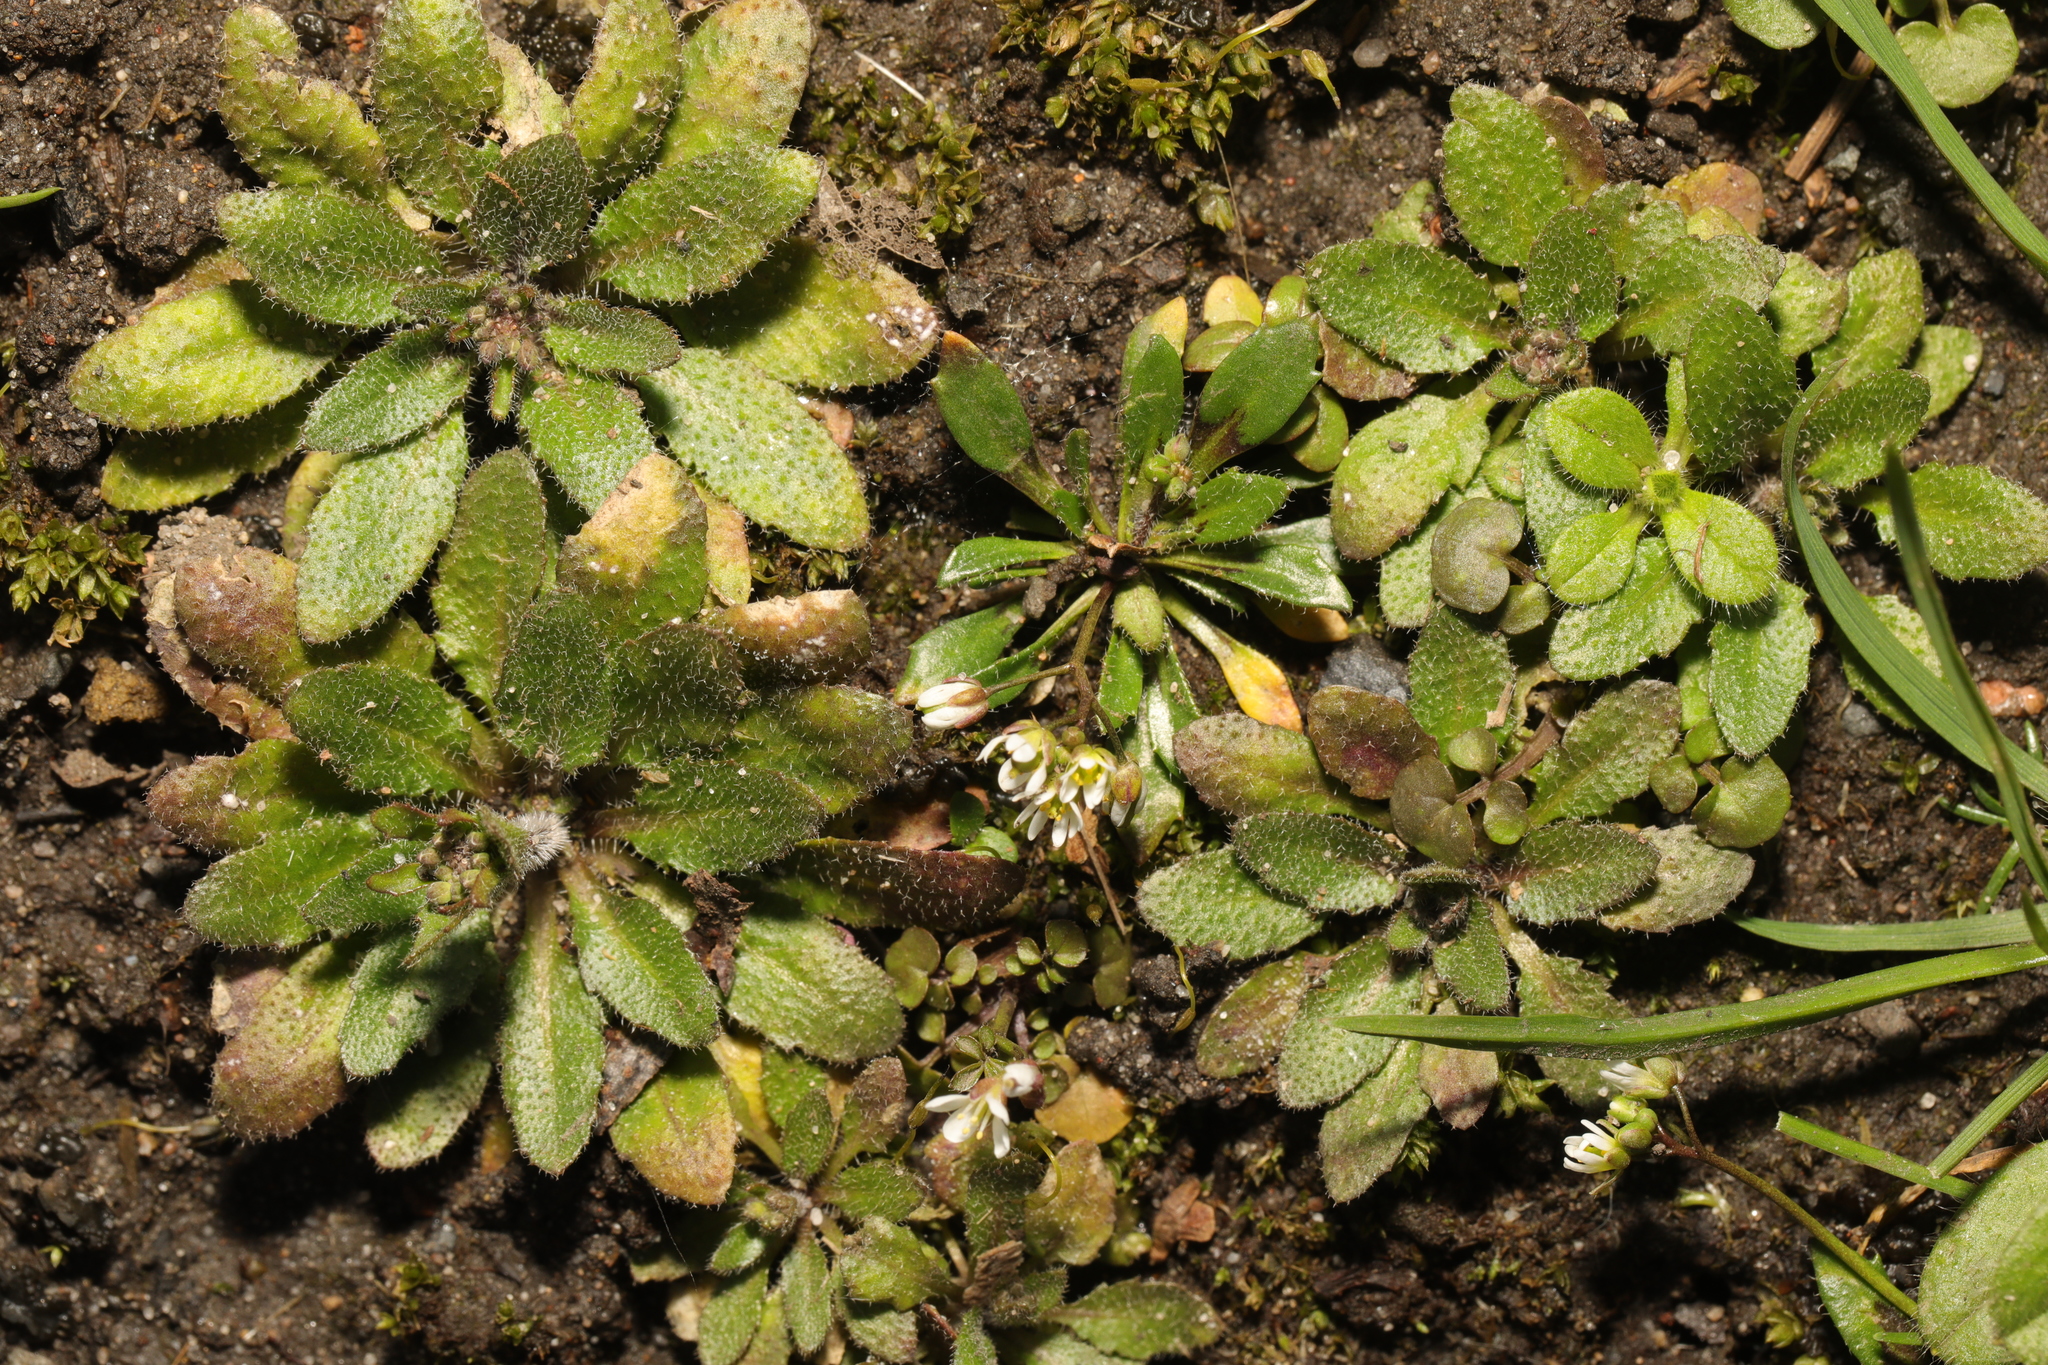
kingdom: Plantae
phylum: Tracheophyta
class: Magnoliopsida
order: Brassicales
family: Brassicaceae
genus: Draba
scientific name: Draba verna
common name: Spring draba
